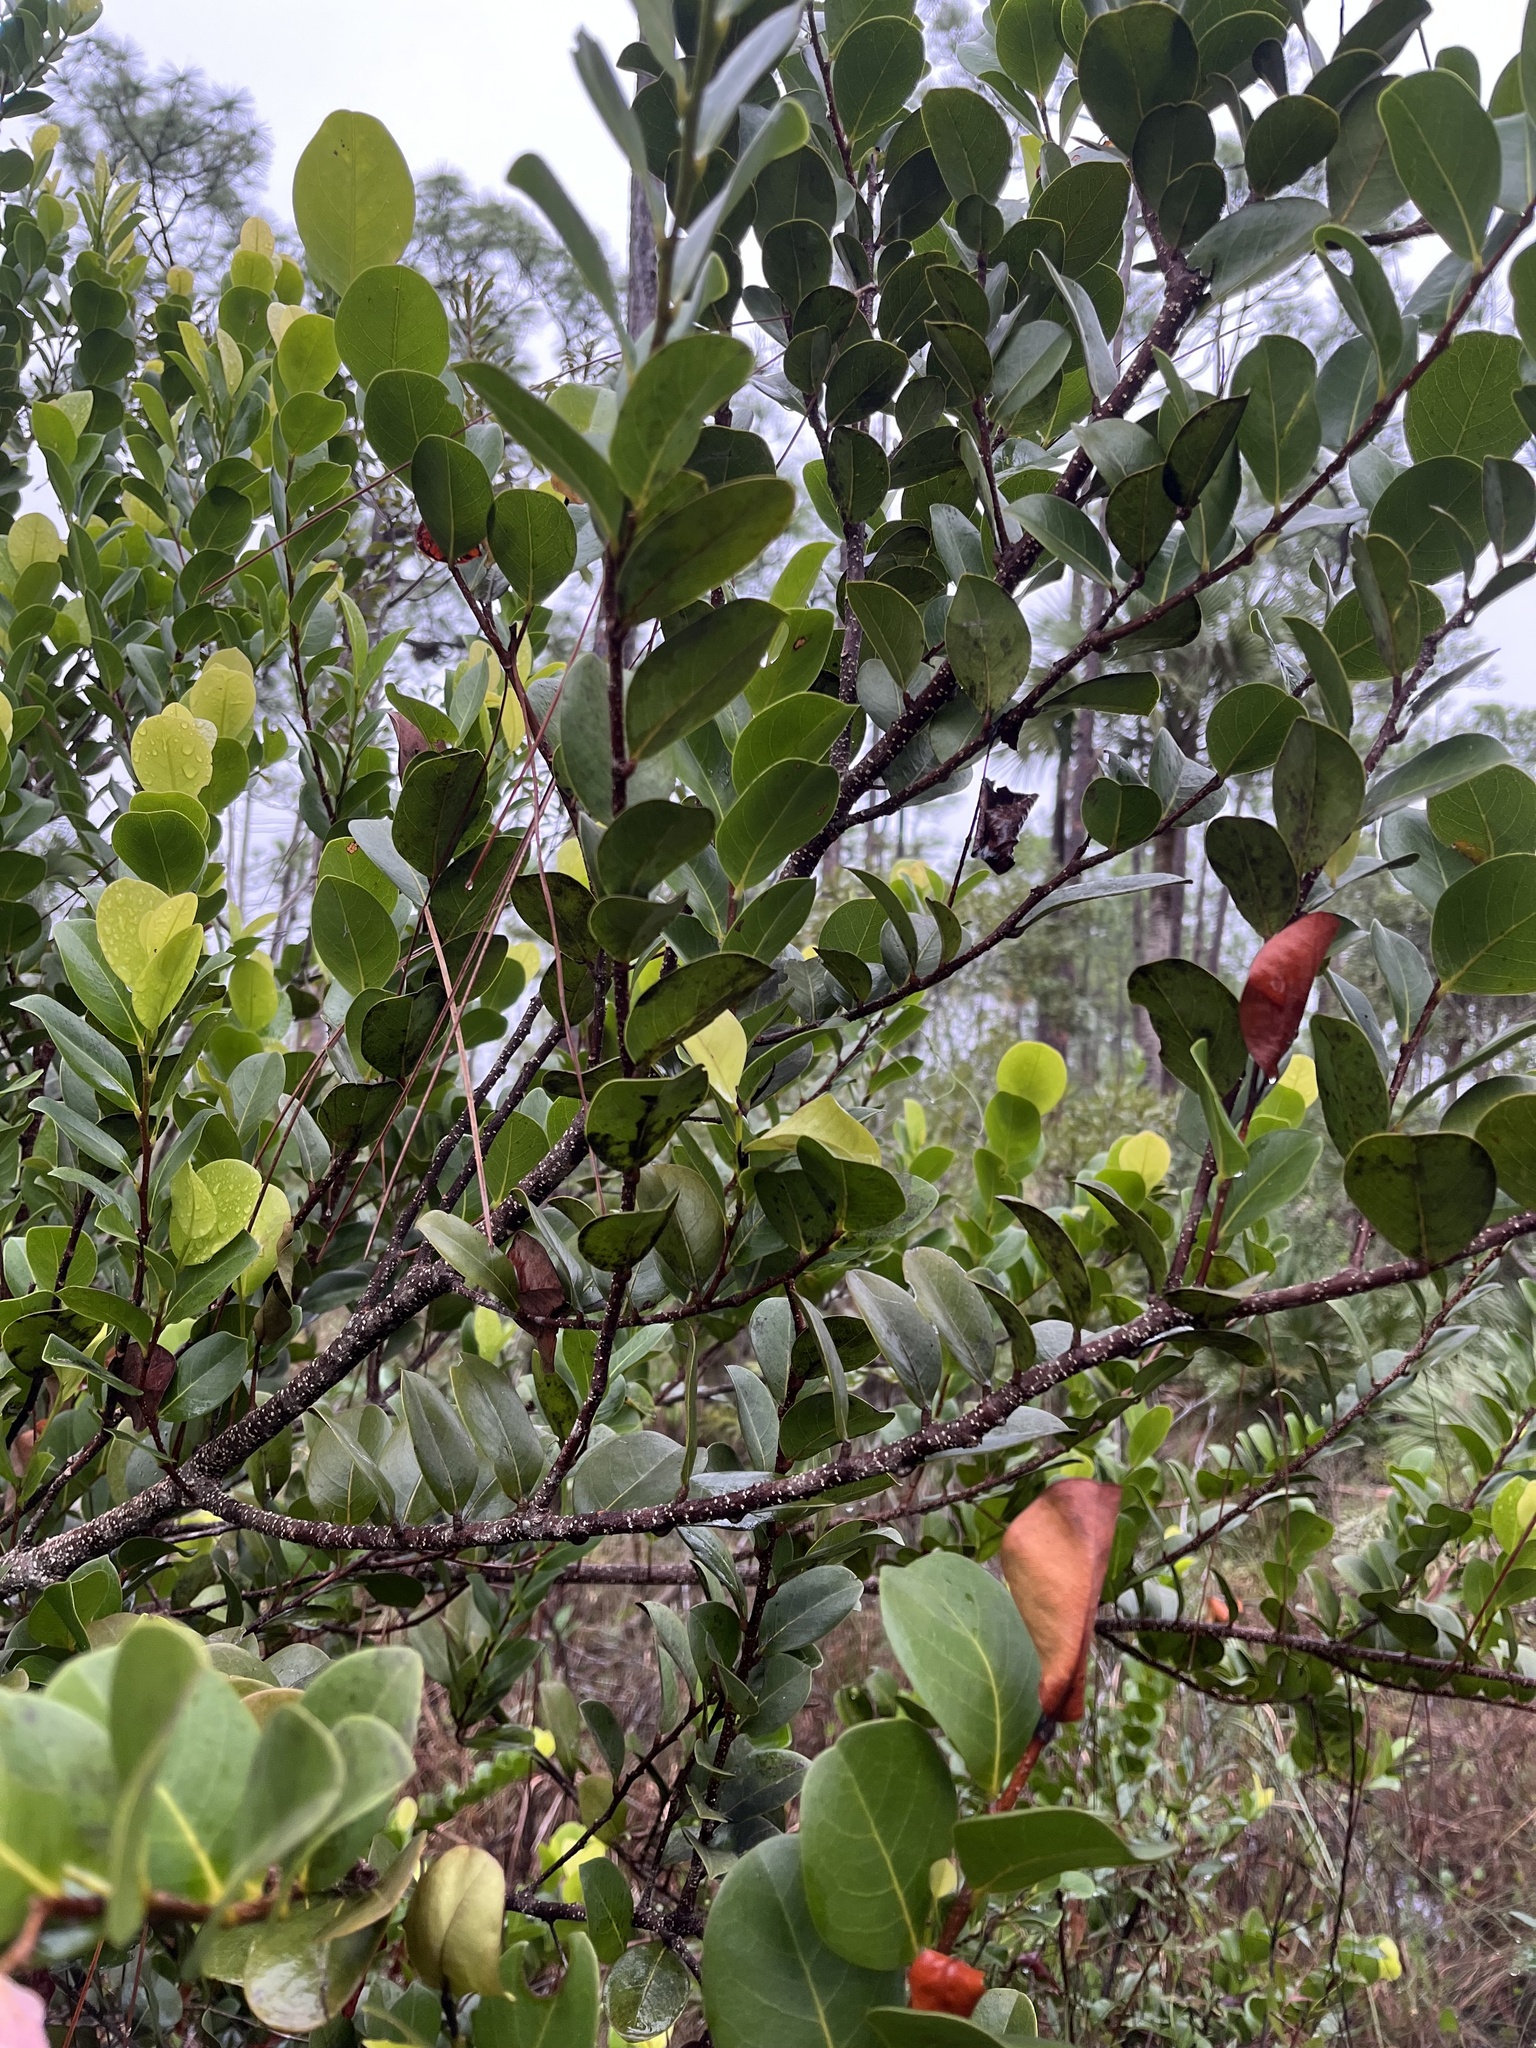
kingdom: Plantae
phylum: Tracheophyta
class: Magnoliopsida
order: Malpighiales
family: Chrysobalanaceae
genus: Chrysobalanus
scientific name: Chrysobalanus icaco
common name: Coco plum
